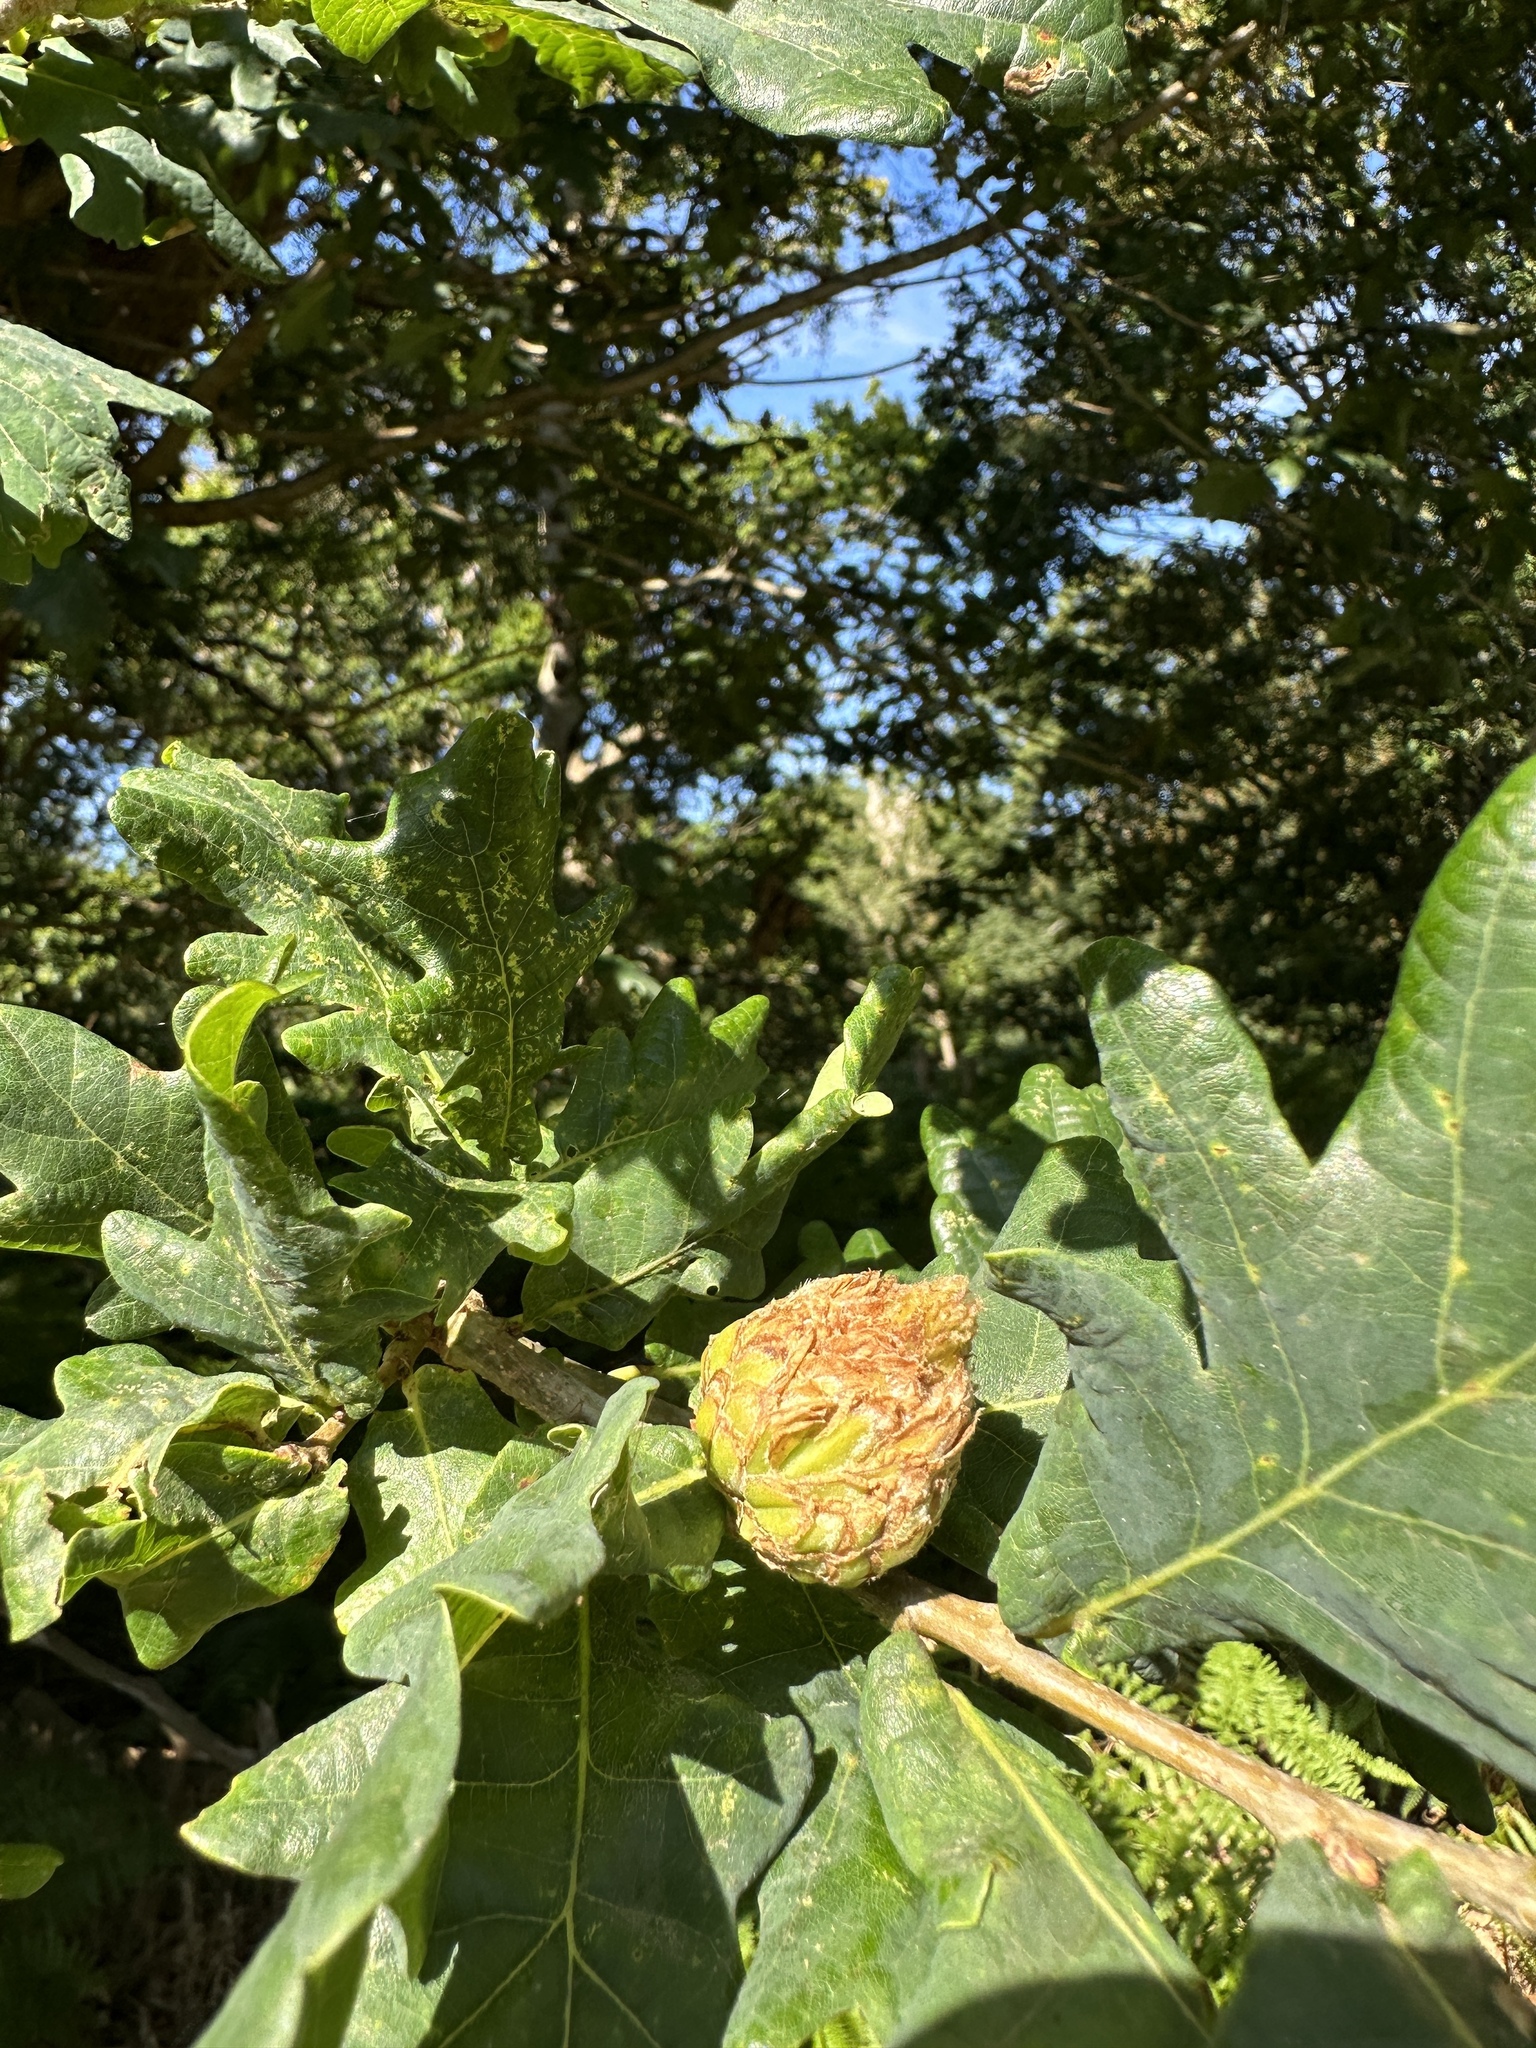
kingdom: Animalia
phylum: Arthropoda
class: Insecta
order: Hymenoptera
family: Cynipidae
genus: Andricus
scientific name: Andricus foecundatrix
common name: Artichoke gall
